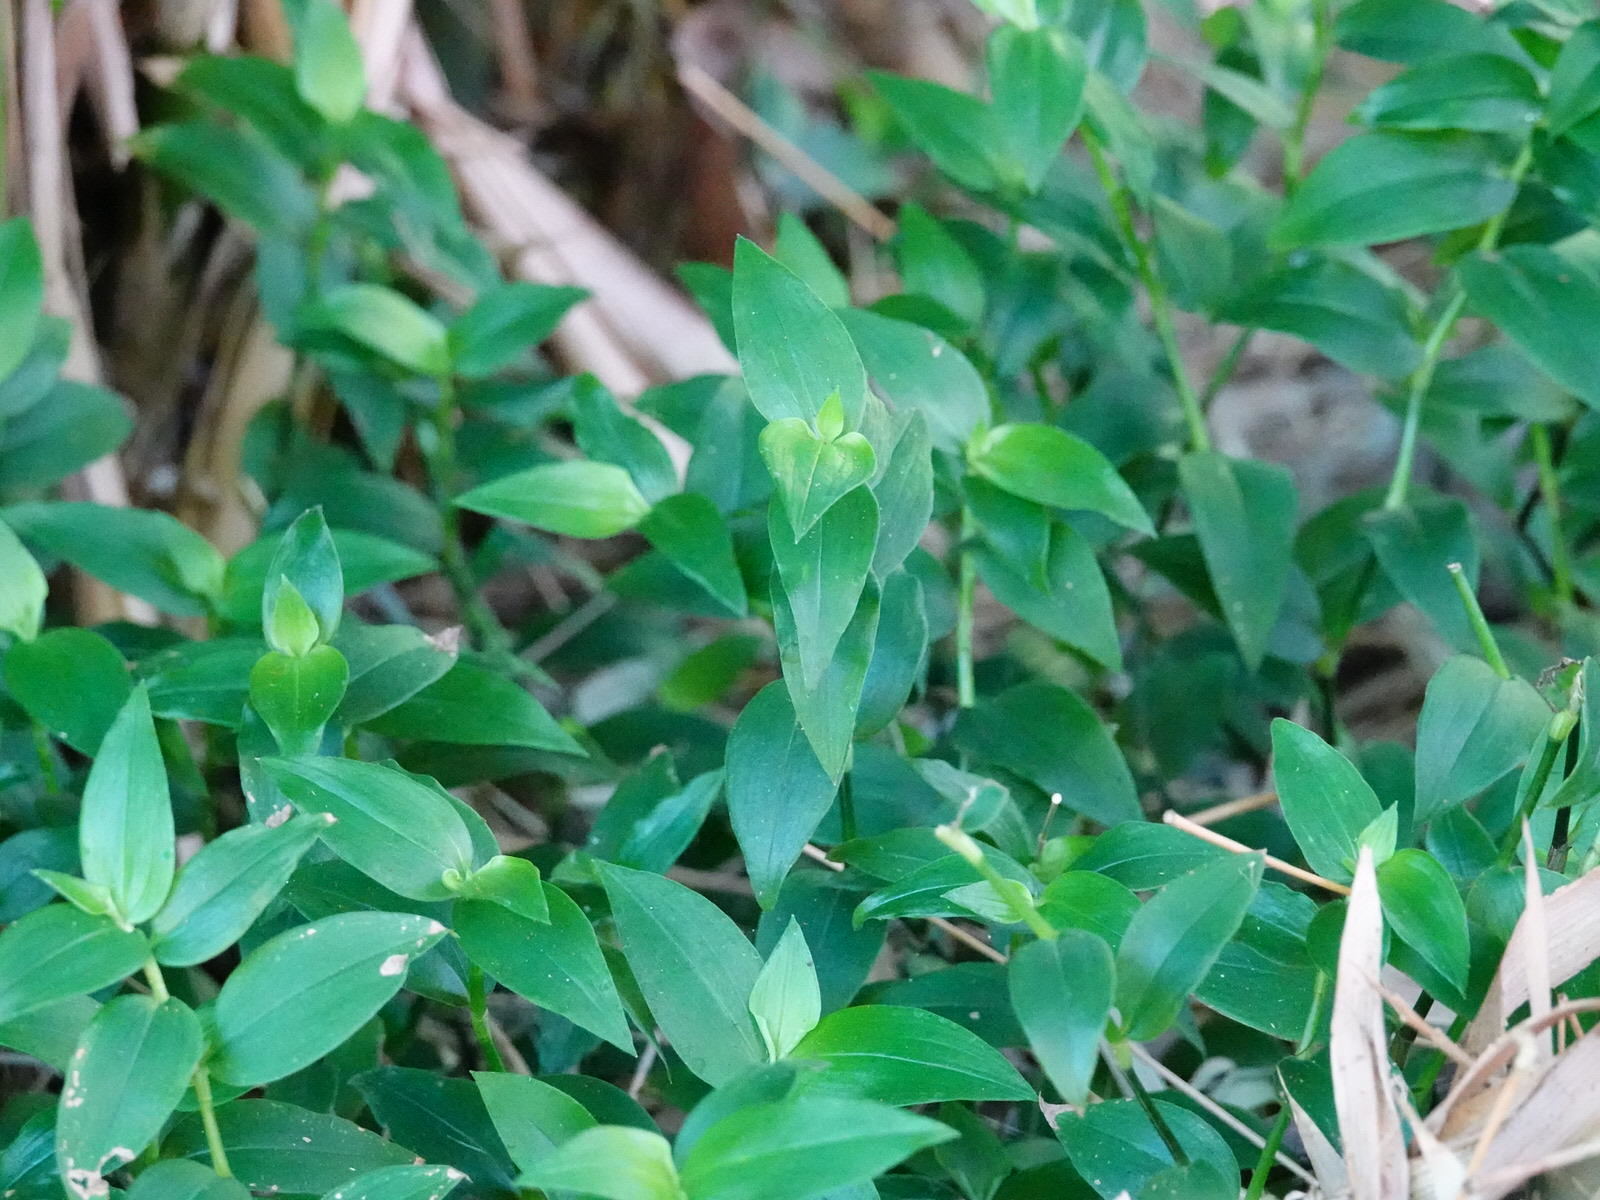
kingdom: Plantae
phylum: Tracheophyta
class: Liliopsida
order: Commelinales
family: Commelinaceae
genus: Tradescantia
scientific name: Tradescantia fluminensis
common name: Wandering-jew
